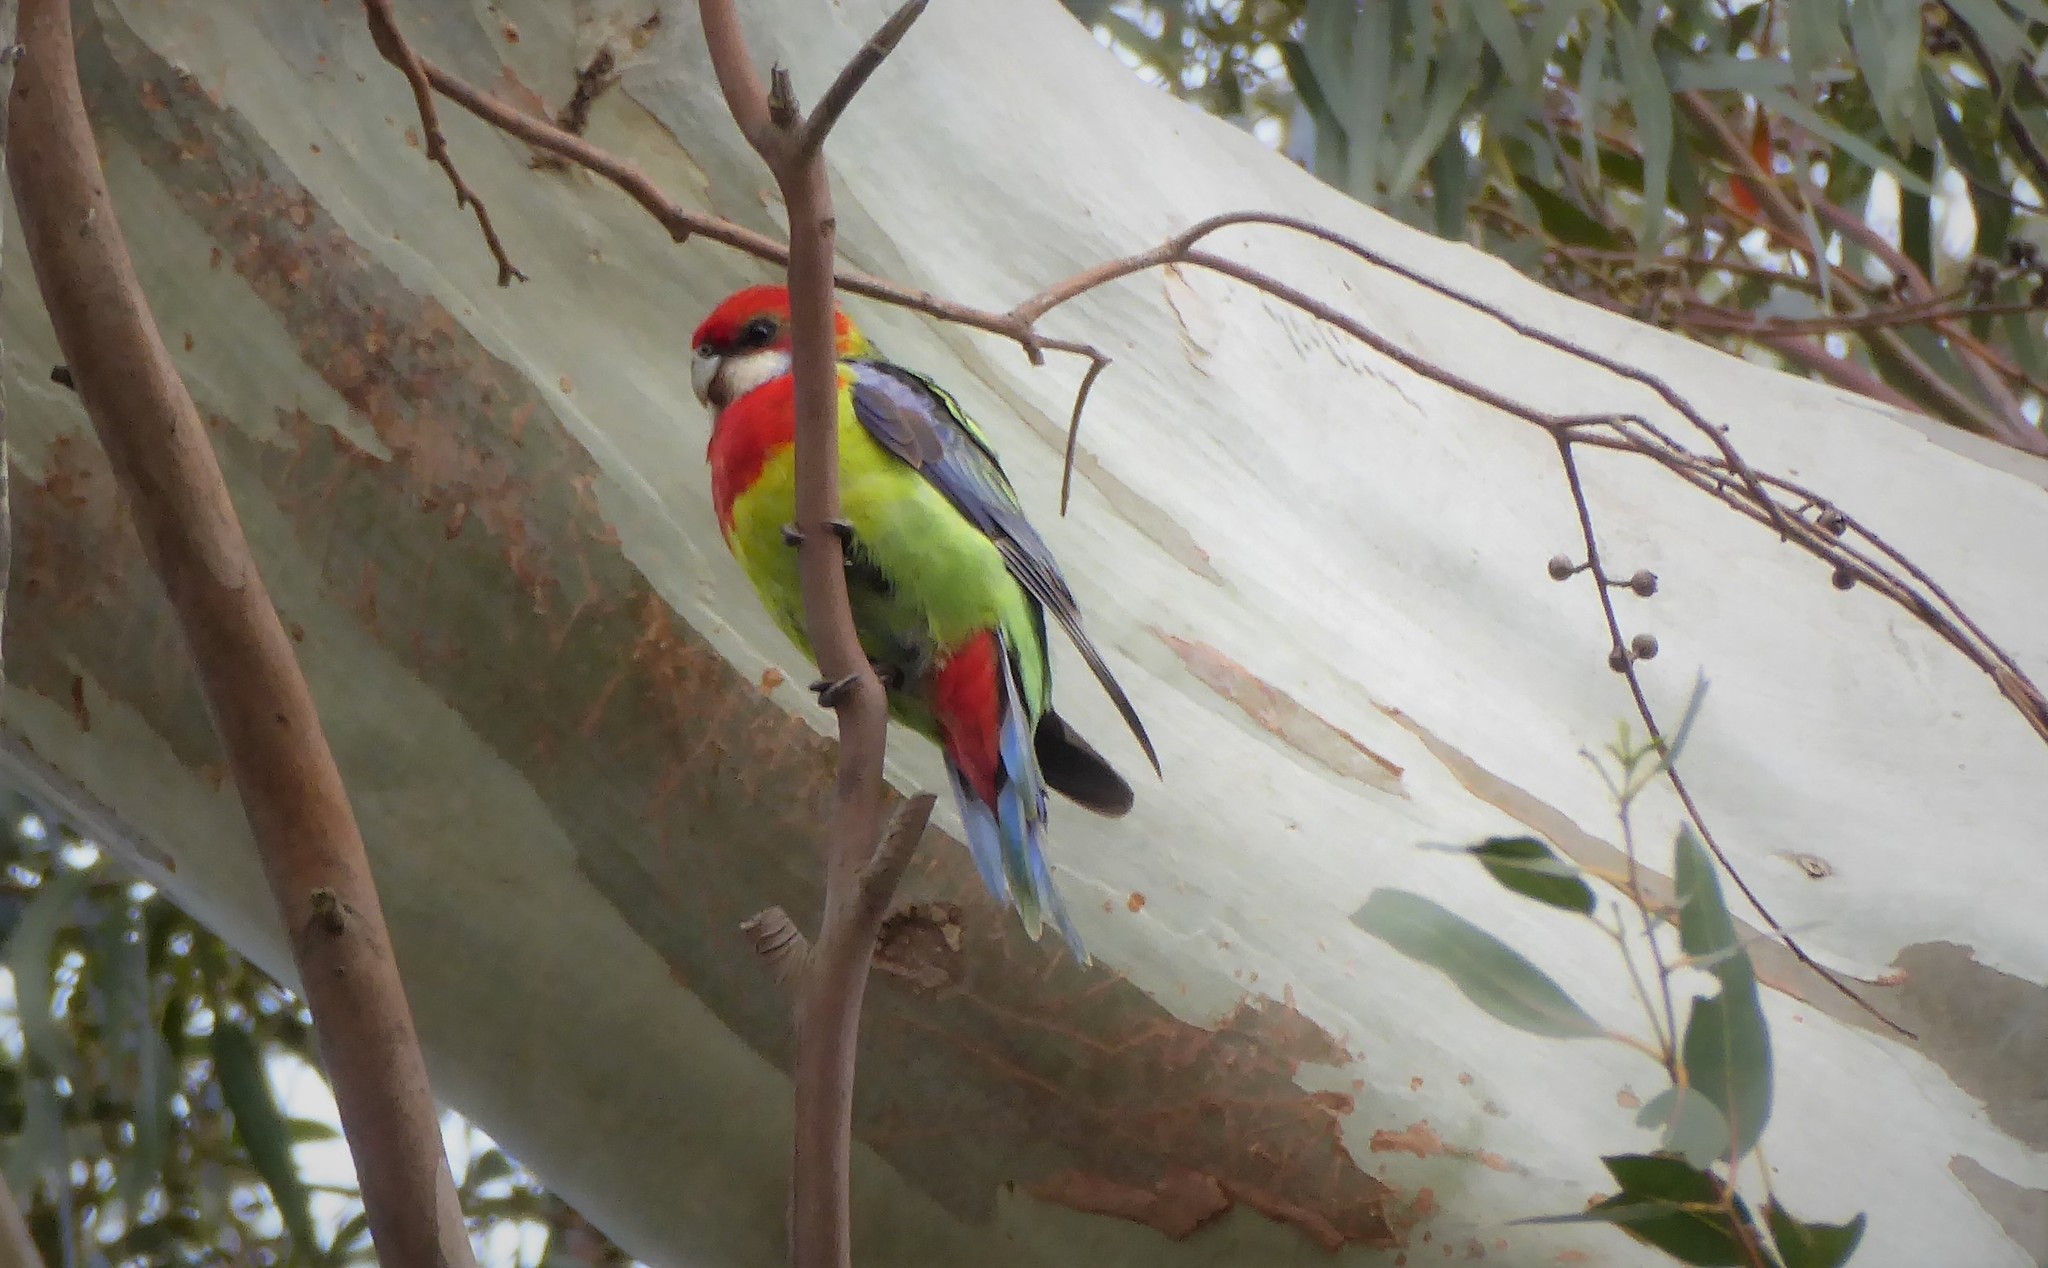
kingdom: Animalia
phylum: Chordata
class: Aves
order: Psittaciformes
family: Psittacidae
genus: Platycercus
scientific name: Platycercus eximius
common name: Eastern rosella
